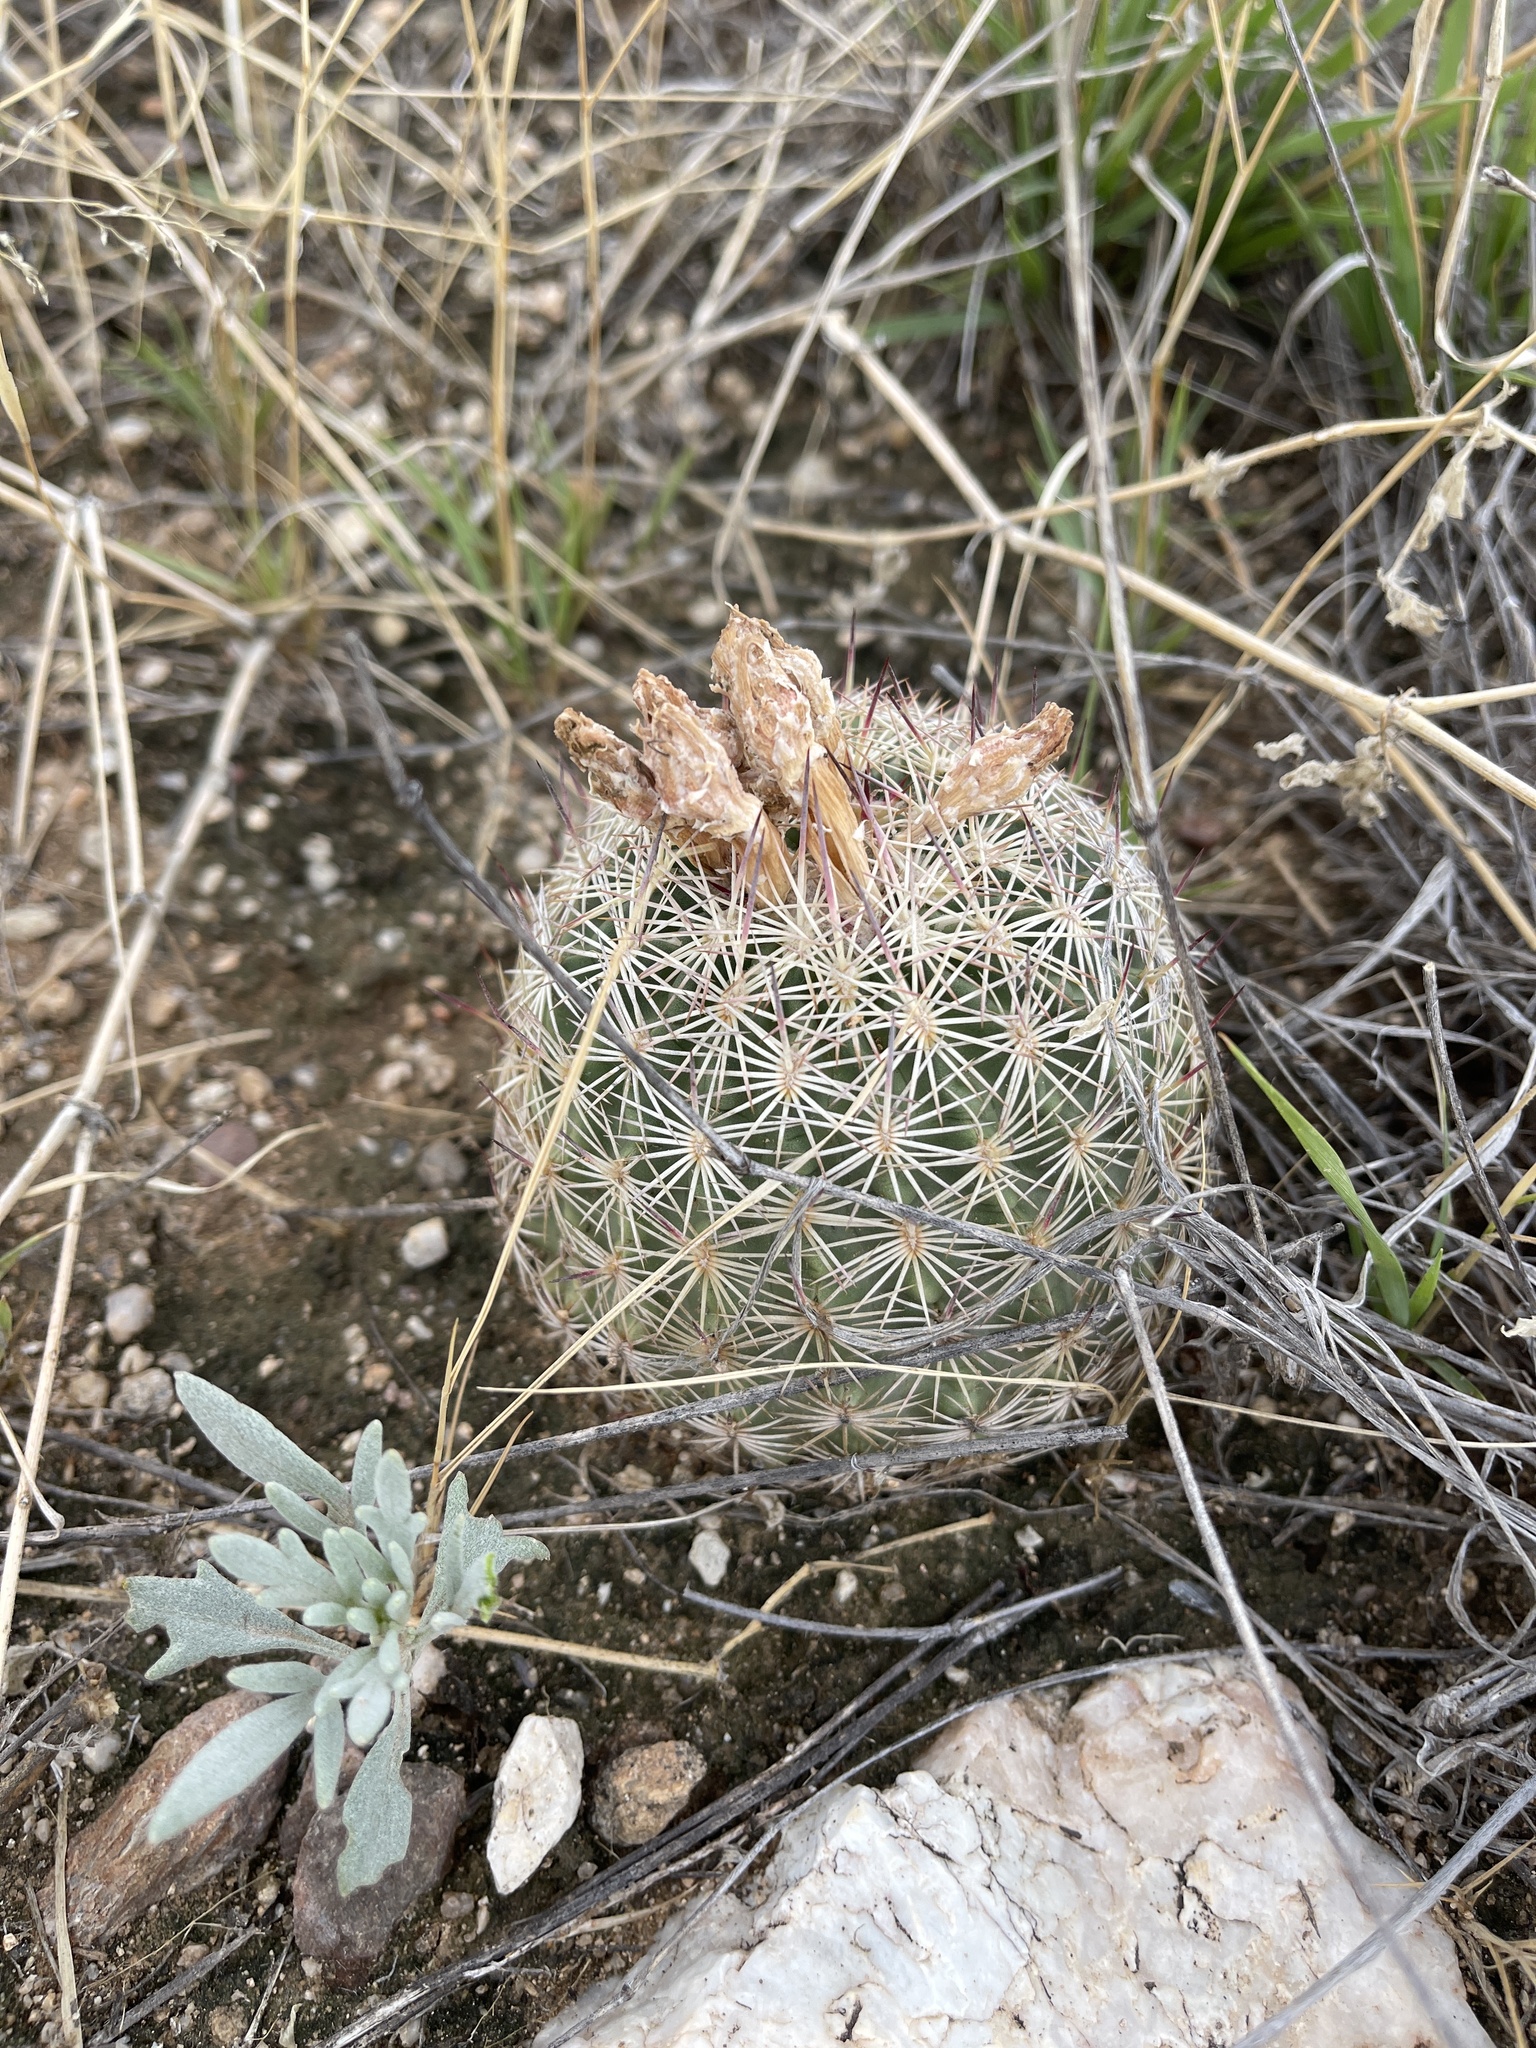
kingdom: Plantae
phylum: Tracheophyta
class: Magnoliopsida
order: Caryophyllales
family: Cactaceae
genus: Sclerocactus
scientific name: Sclerocactus johnsonii
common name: Eight-spine fishhook cactus
